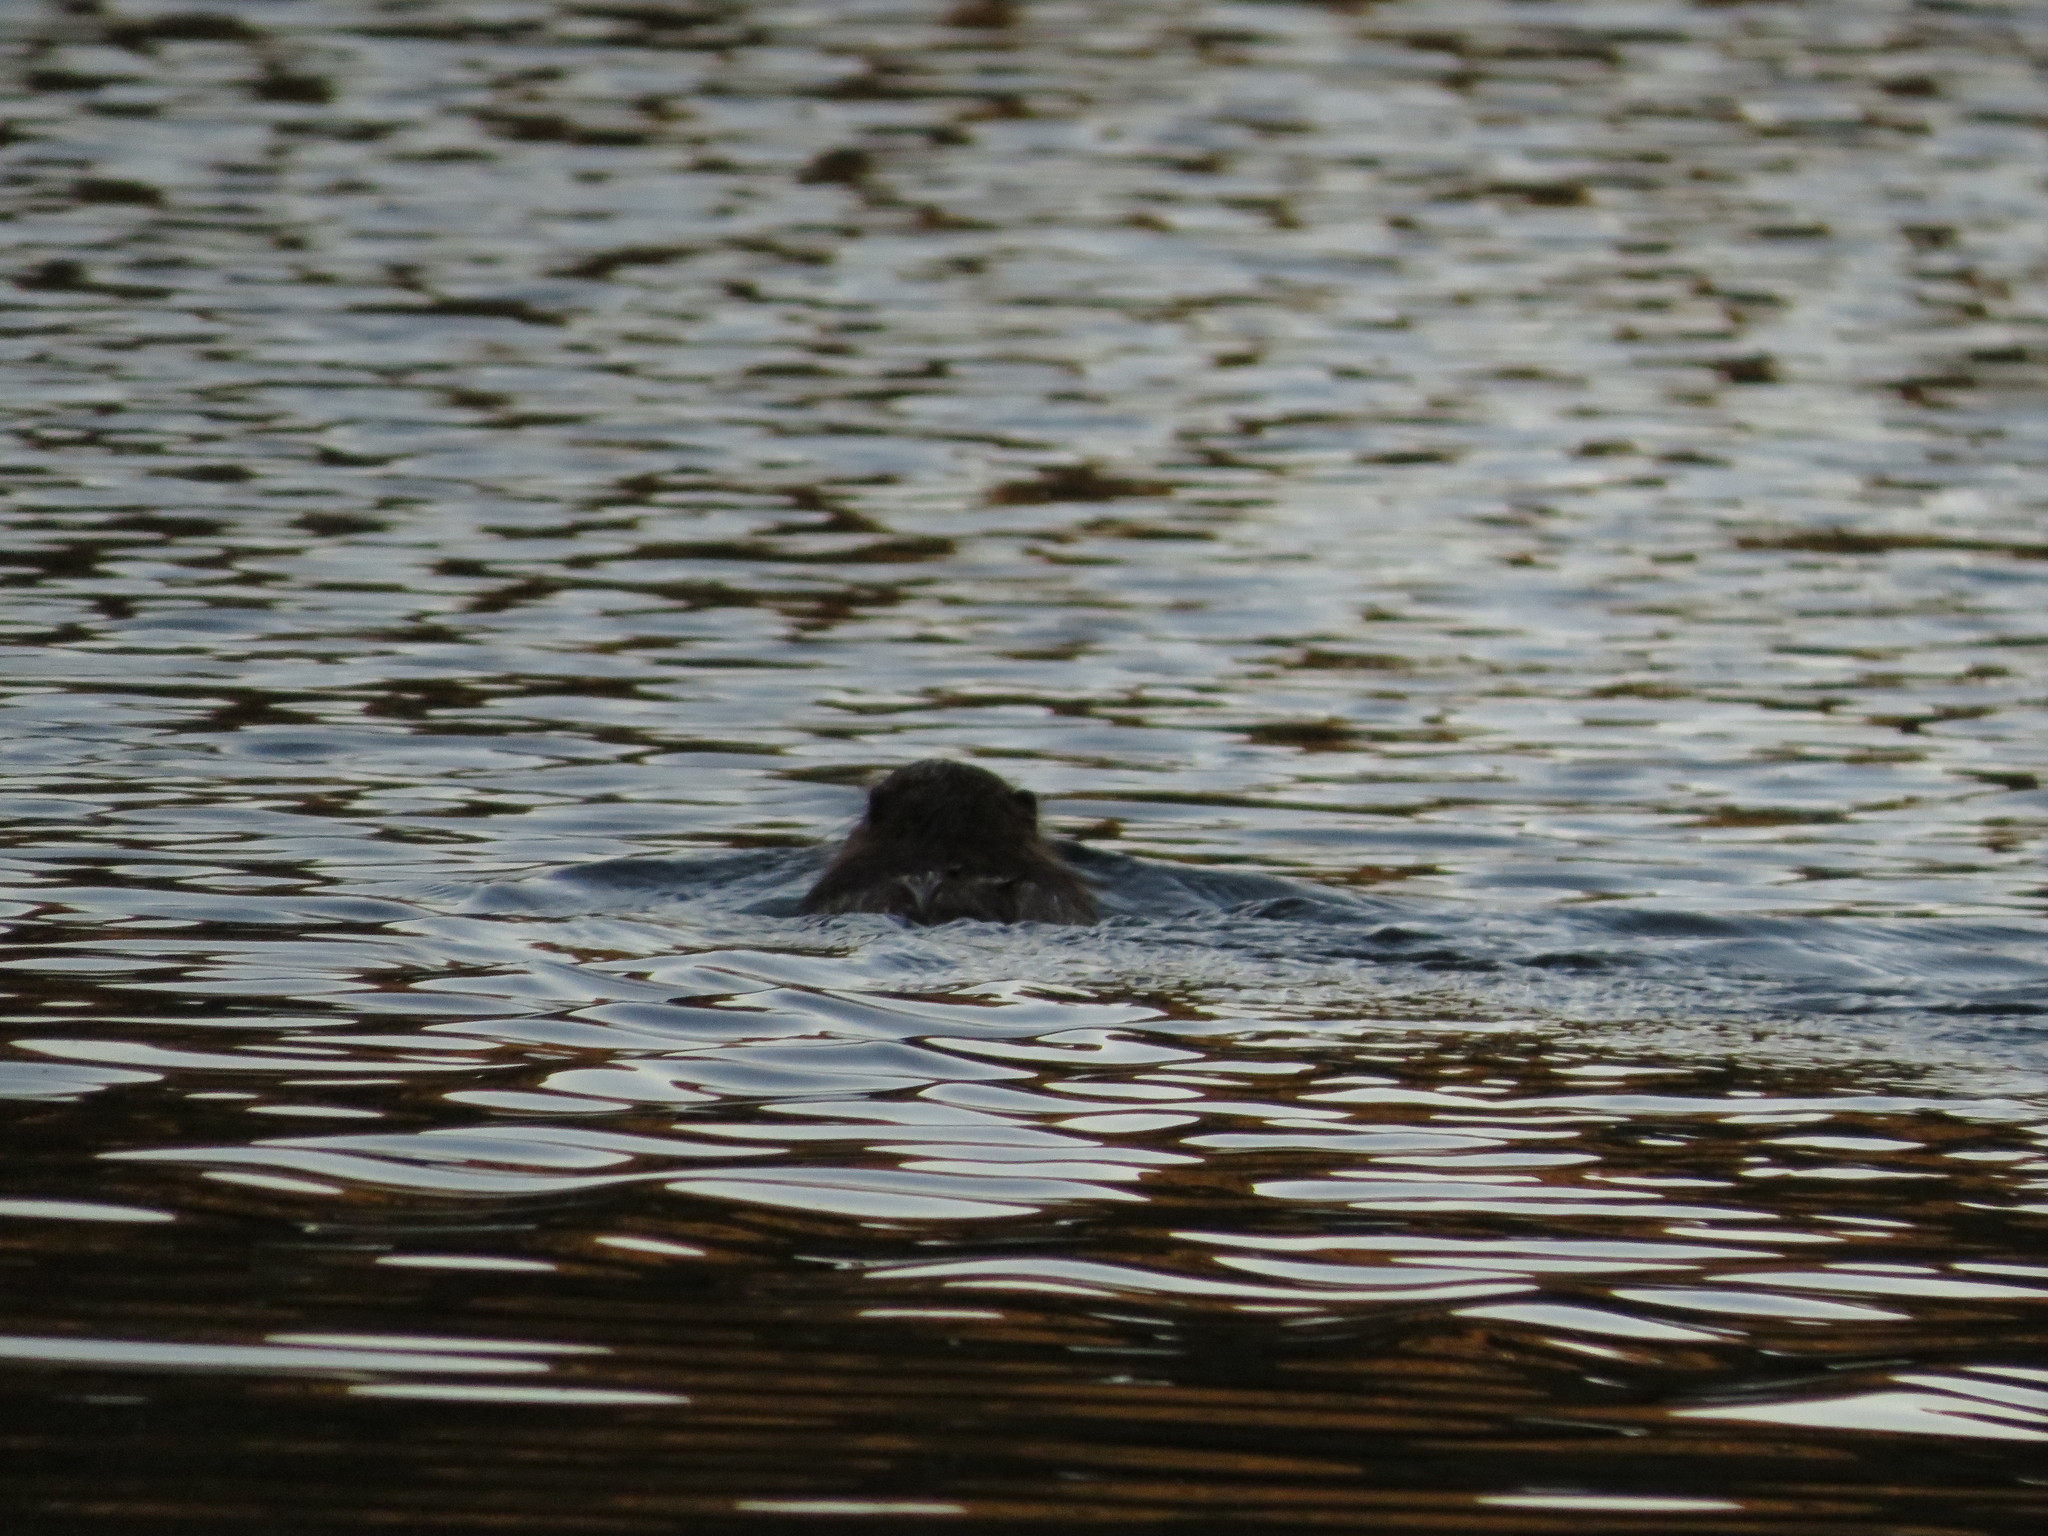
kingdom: Animalia
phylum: Chordata
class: Mammalia
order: Rodentia
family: Myocastoridae
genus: Myocastor
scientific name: Myocastor coypus
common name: Coypu
